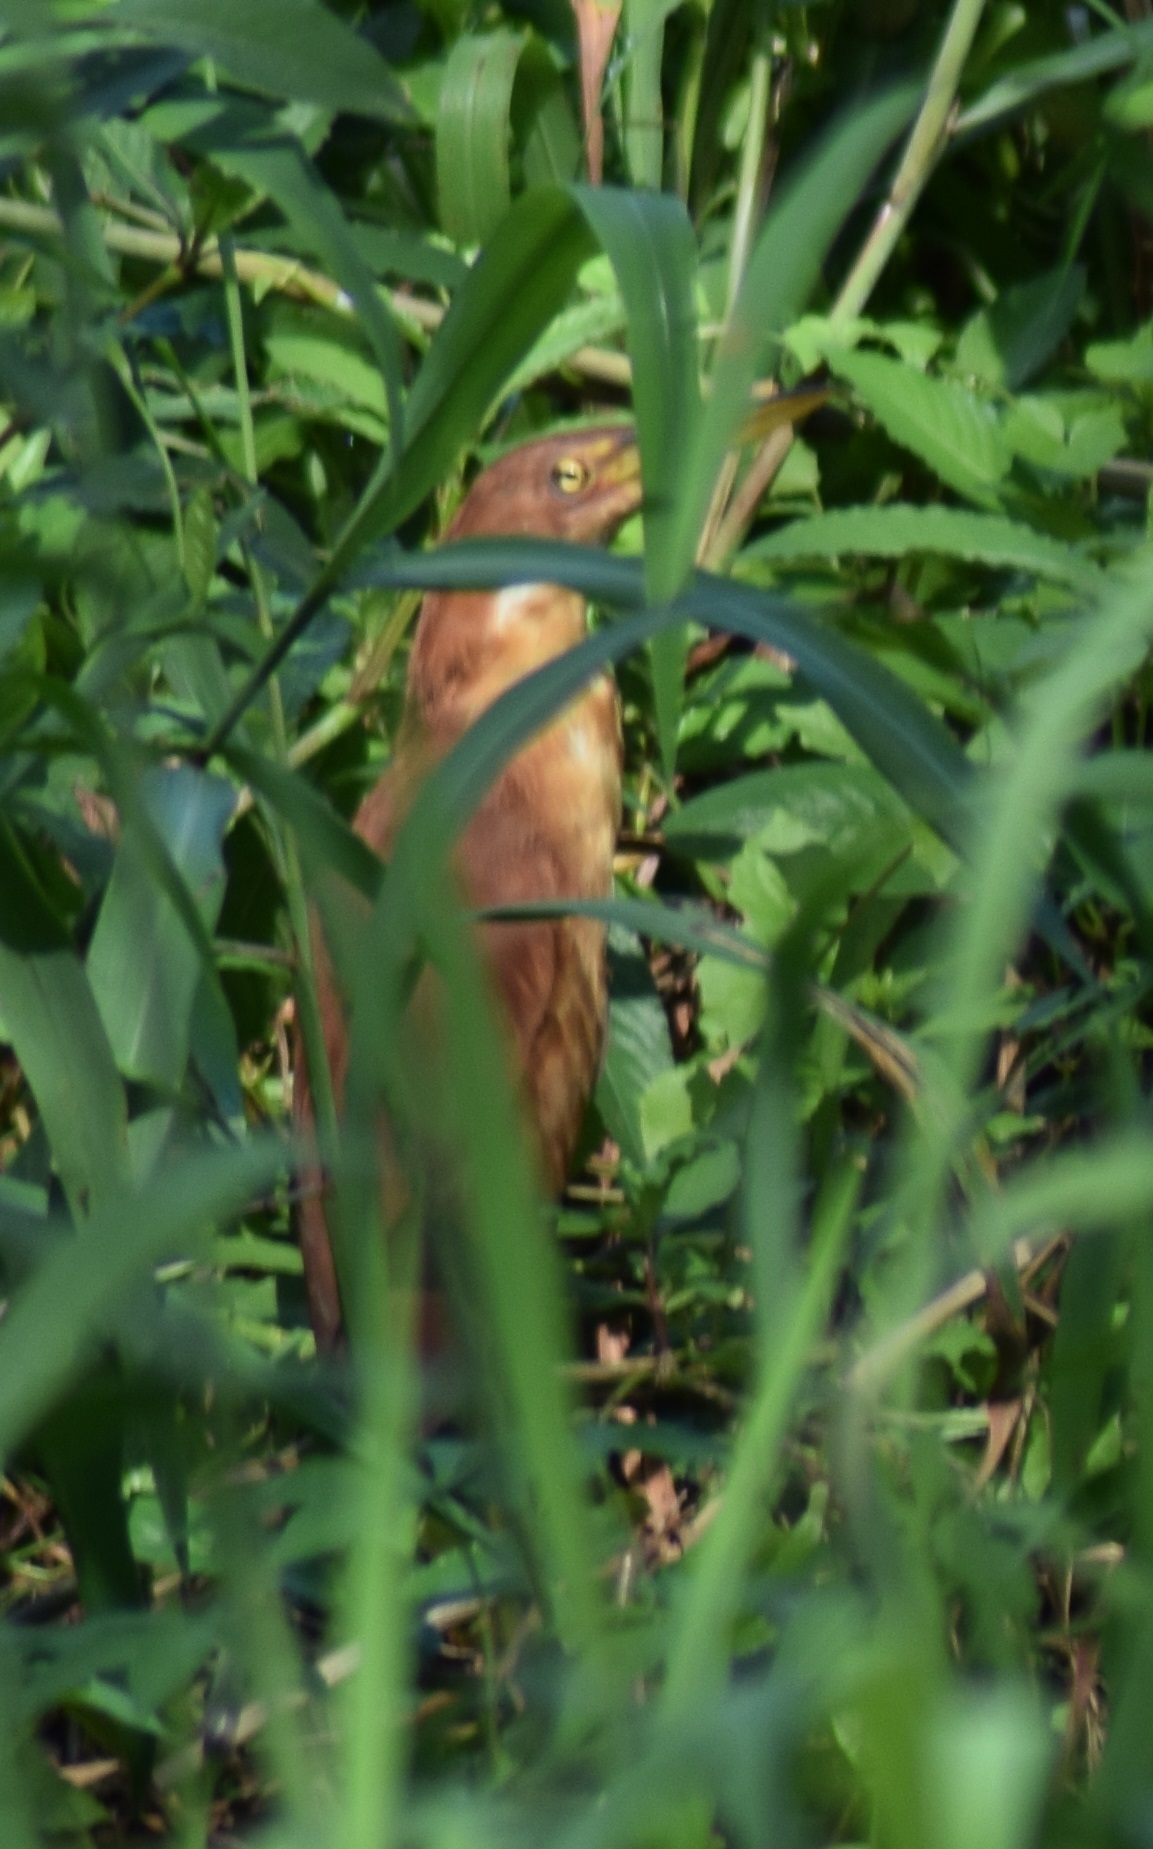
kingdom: Animalia
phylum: Chordata
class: Aves
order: Pelecaniformes
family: Ardeidae
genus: Ixobrychus
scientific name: Ixobrychus cinnamomeus
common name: Cinnamon bittern
